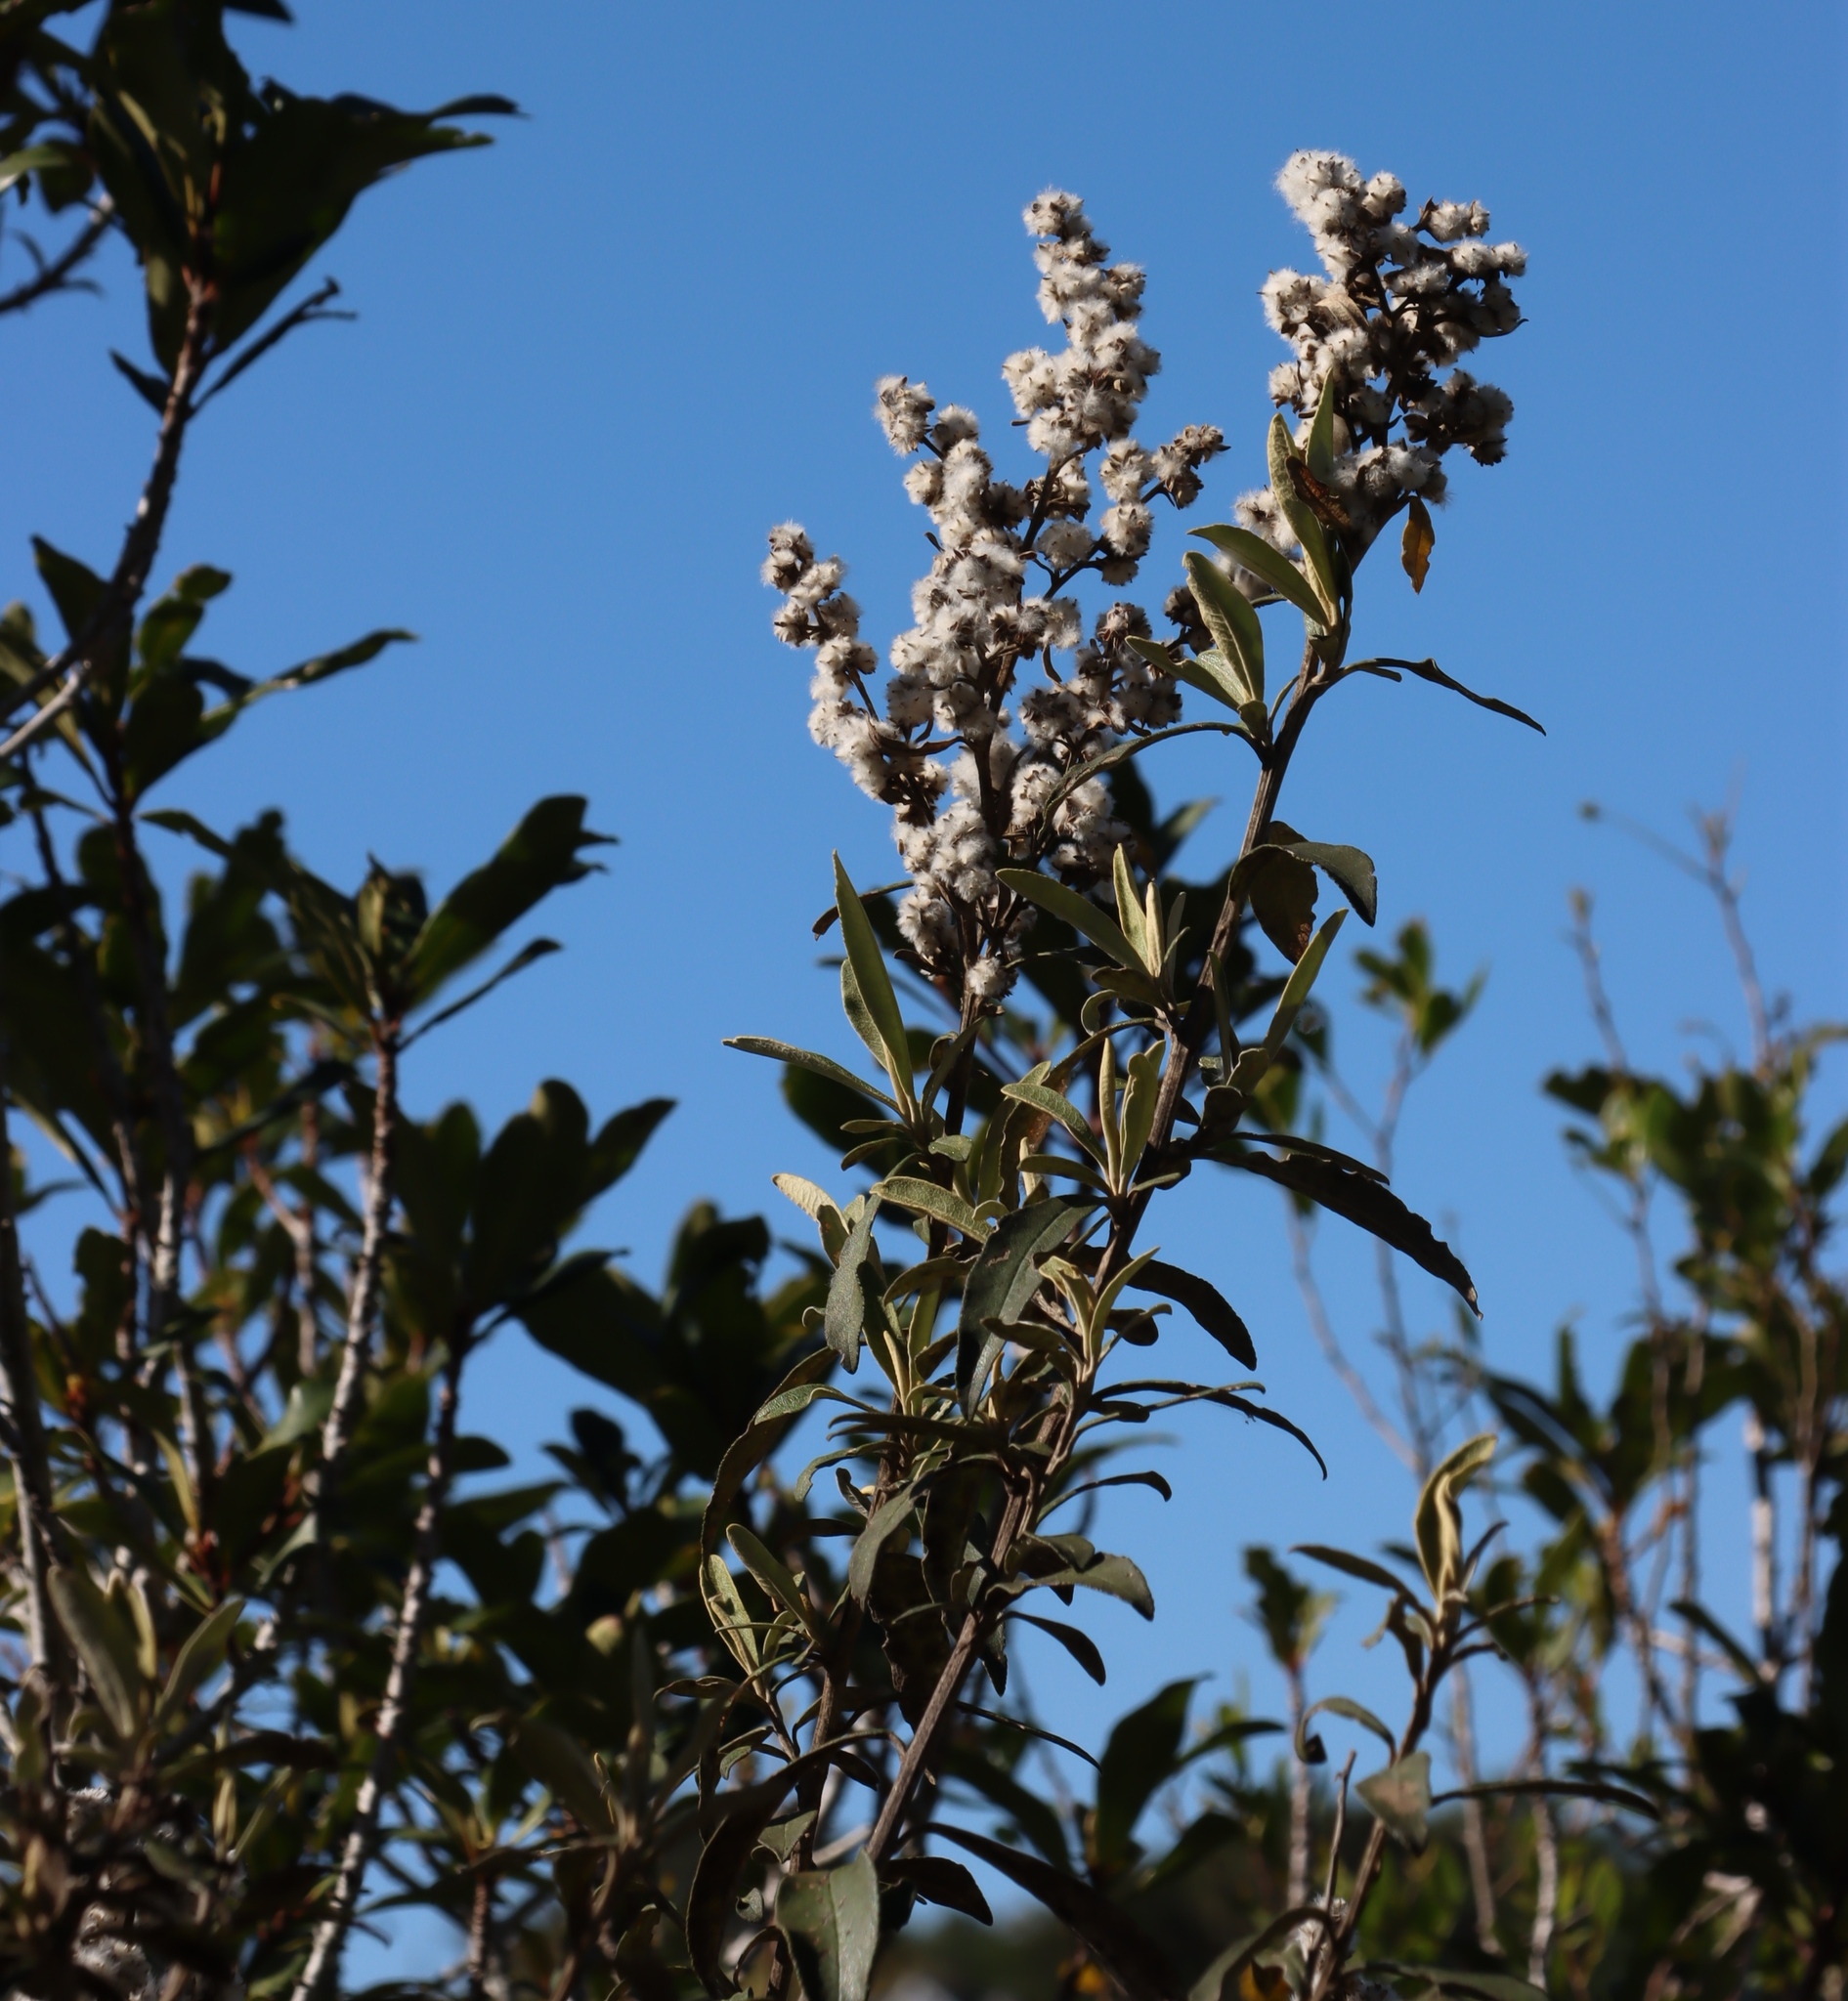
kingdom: Plantae
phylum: Tracheophyta
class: Magnoliopsida
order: Asterales
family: Asteraceae
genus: Tarchonanthus
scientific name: Tarchonanthus littoralis
